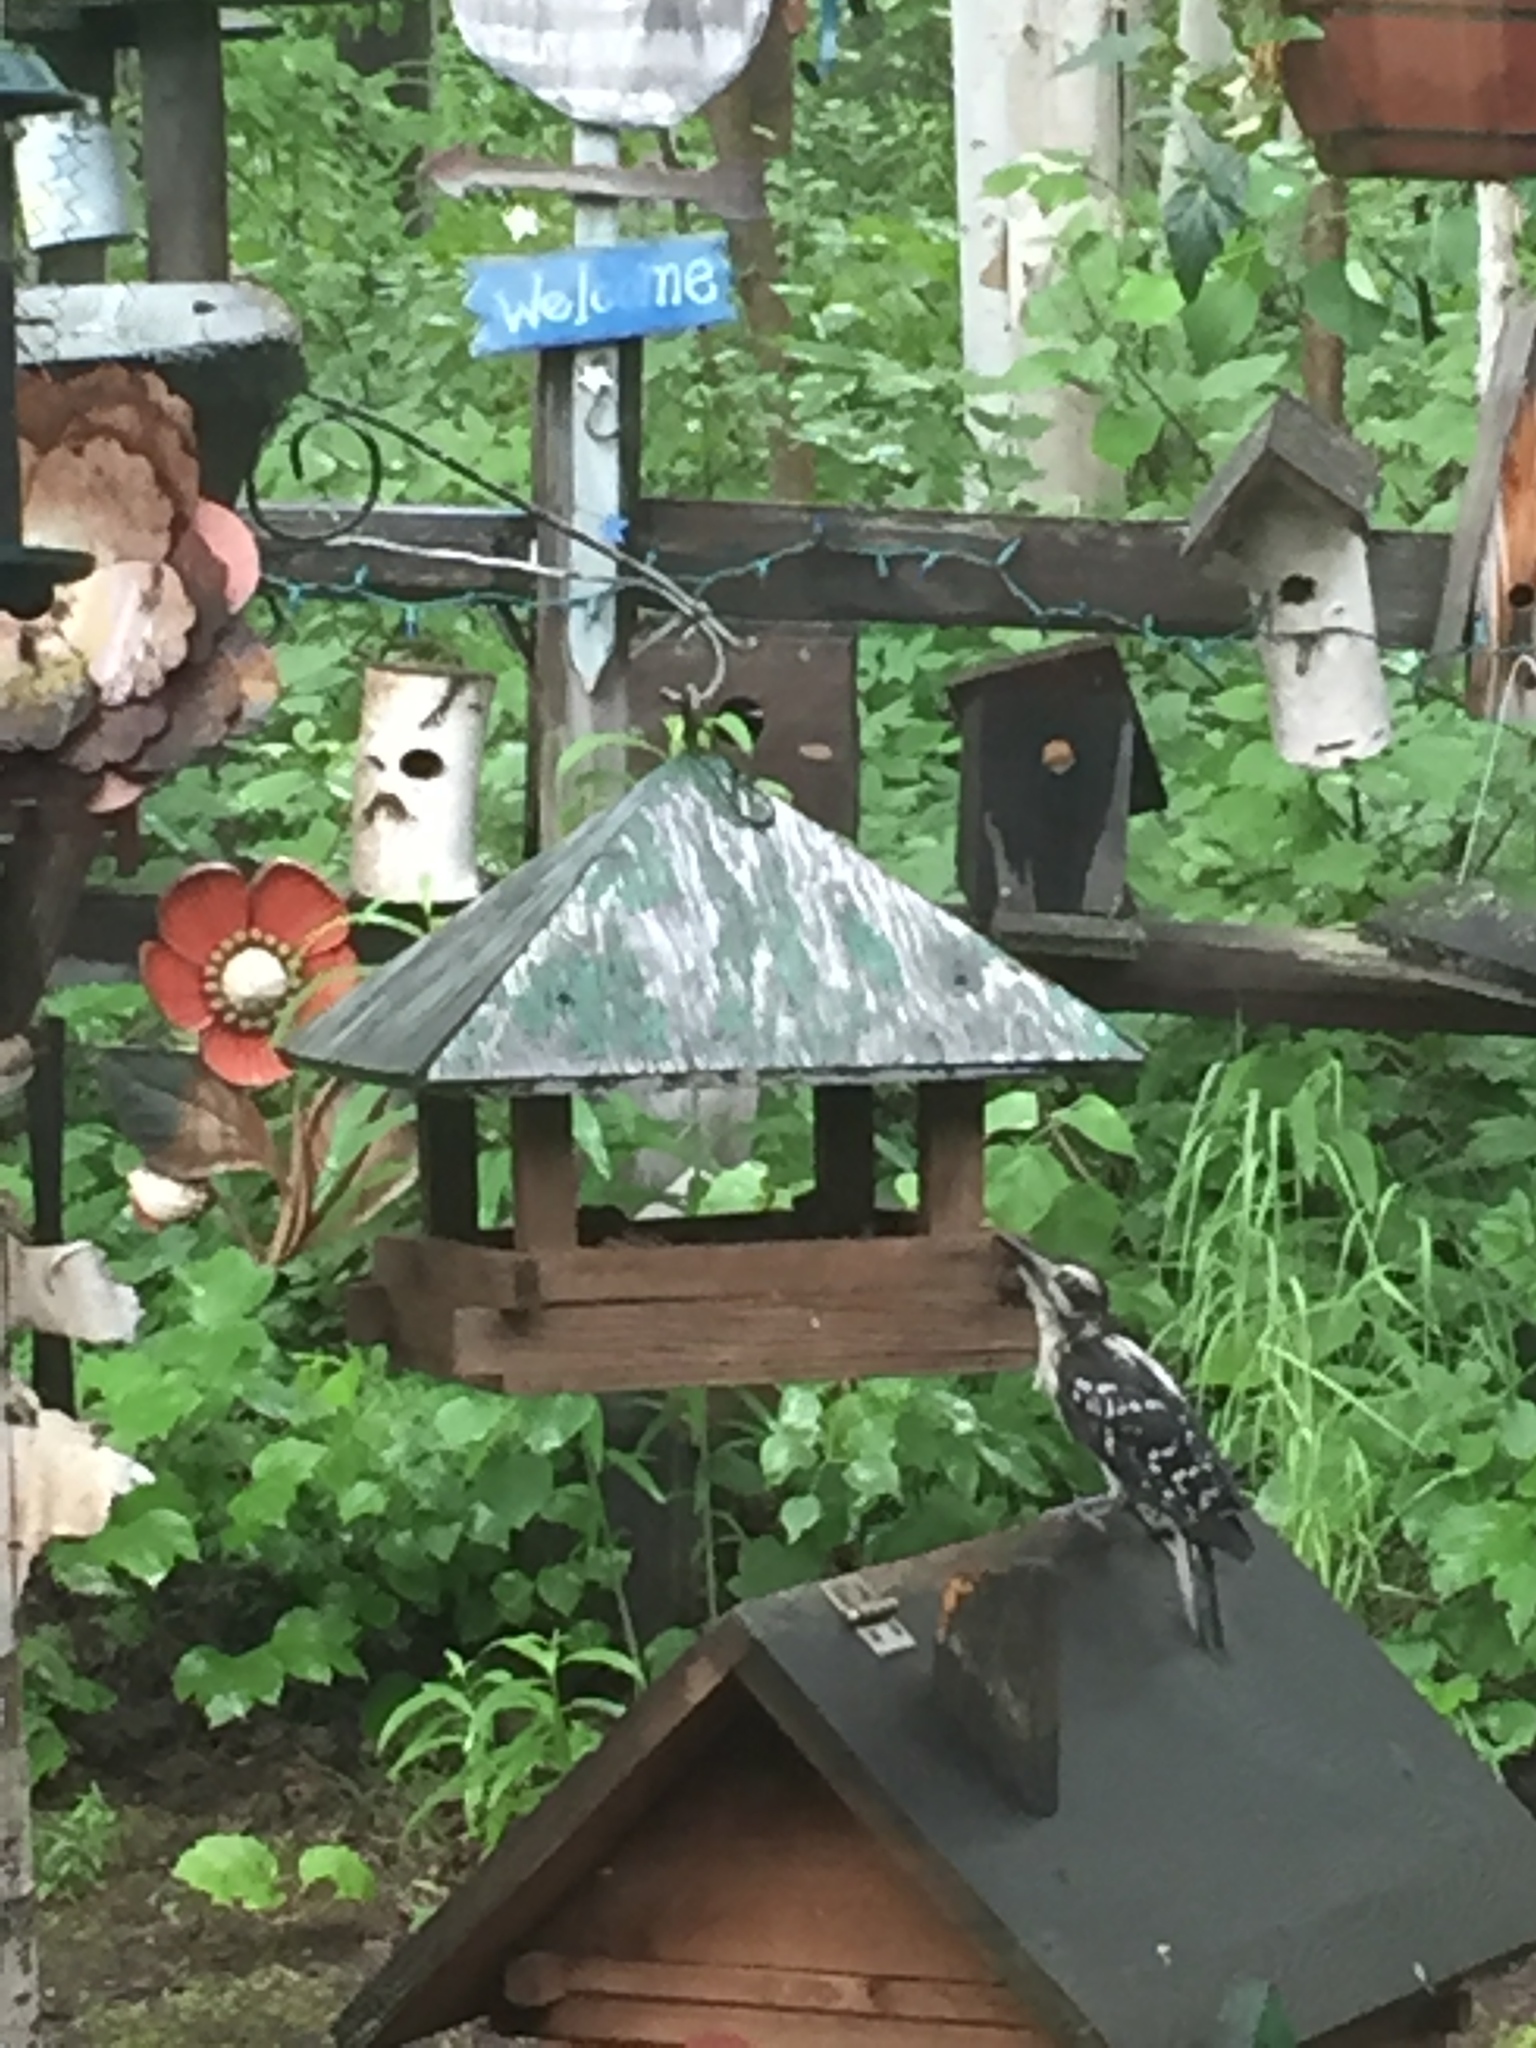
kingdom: Animalia
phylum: Chordata
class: Aves
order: Piciformes
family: Picidae
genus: Leuconotopicus
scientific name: Leuconotopicus villosus
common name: Hairy woodpecker
